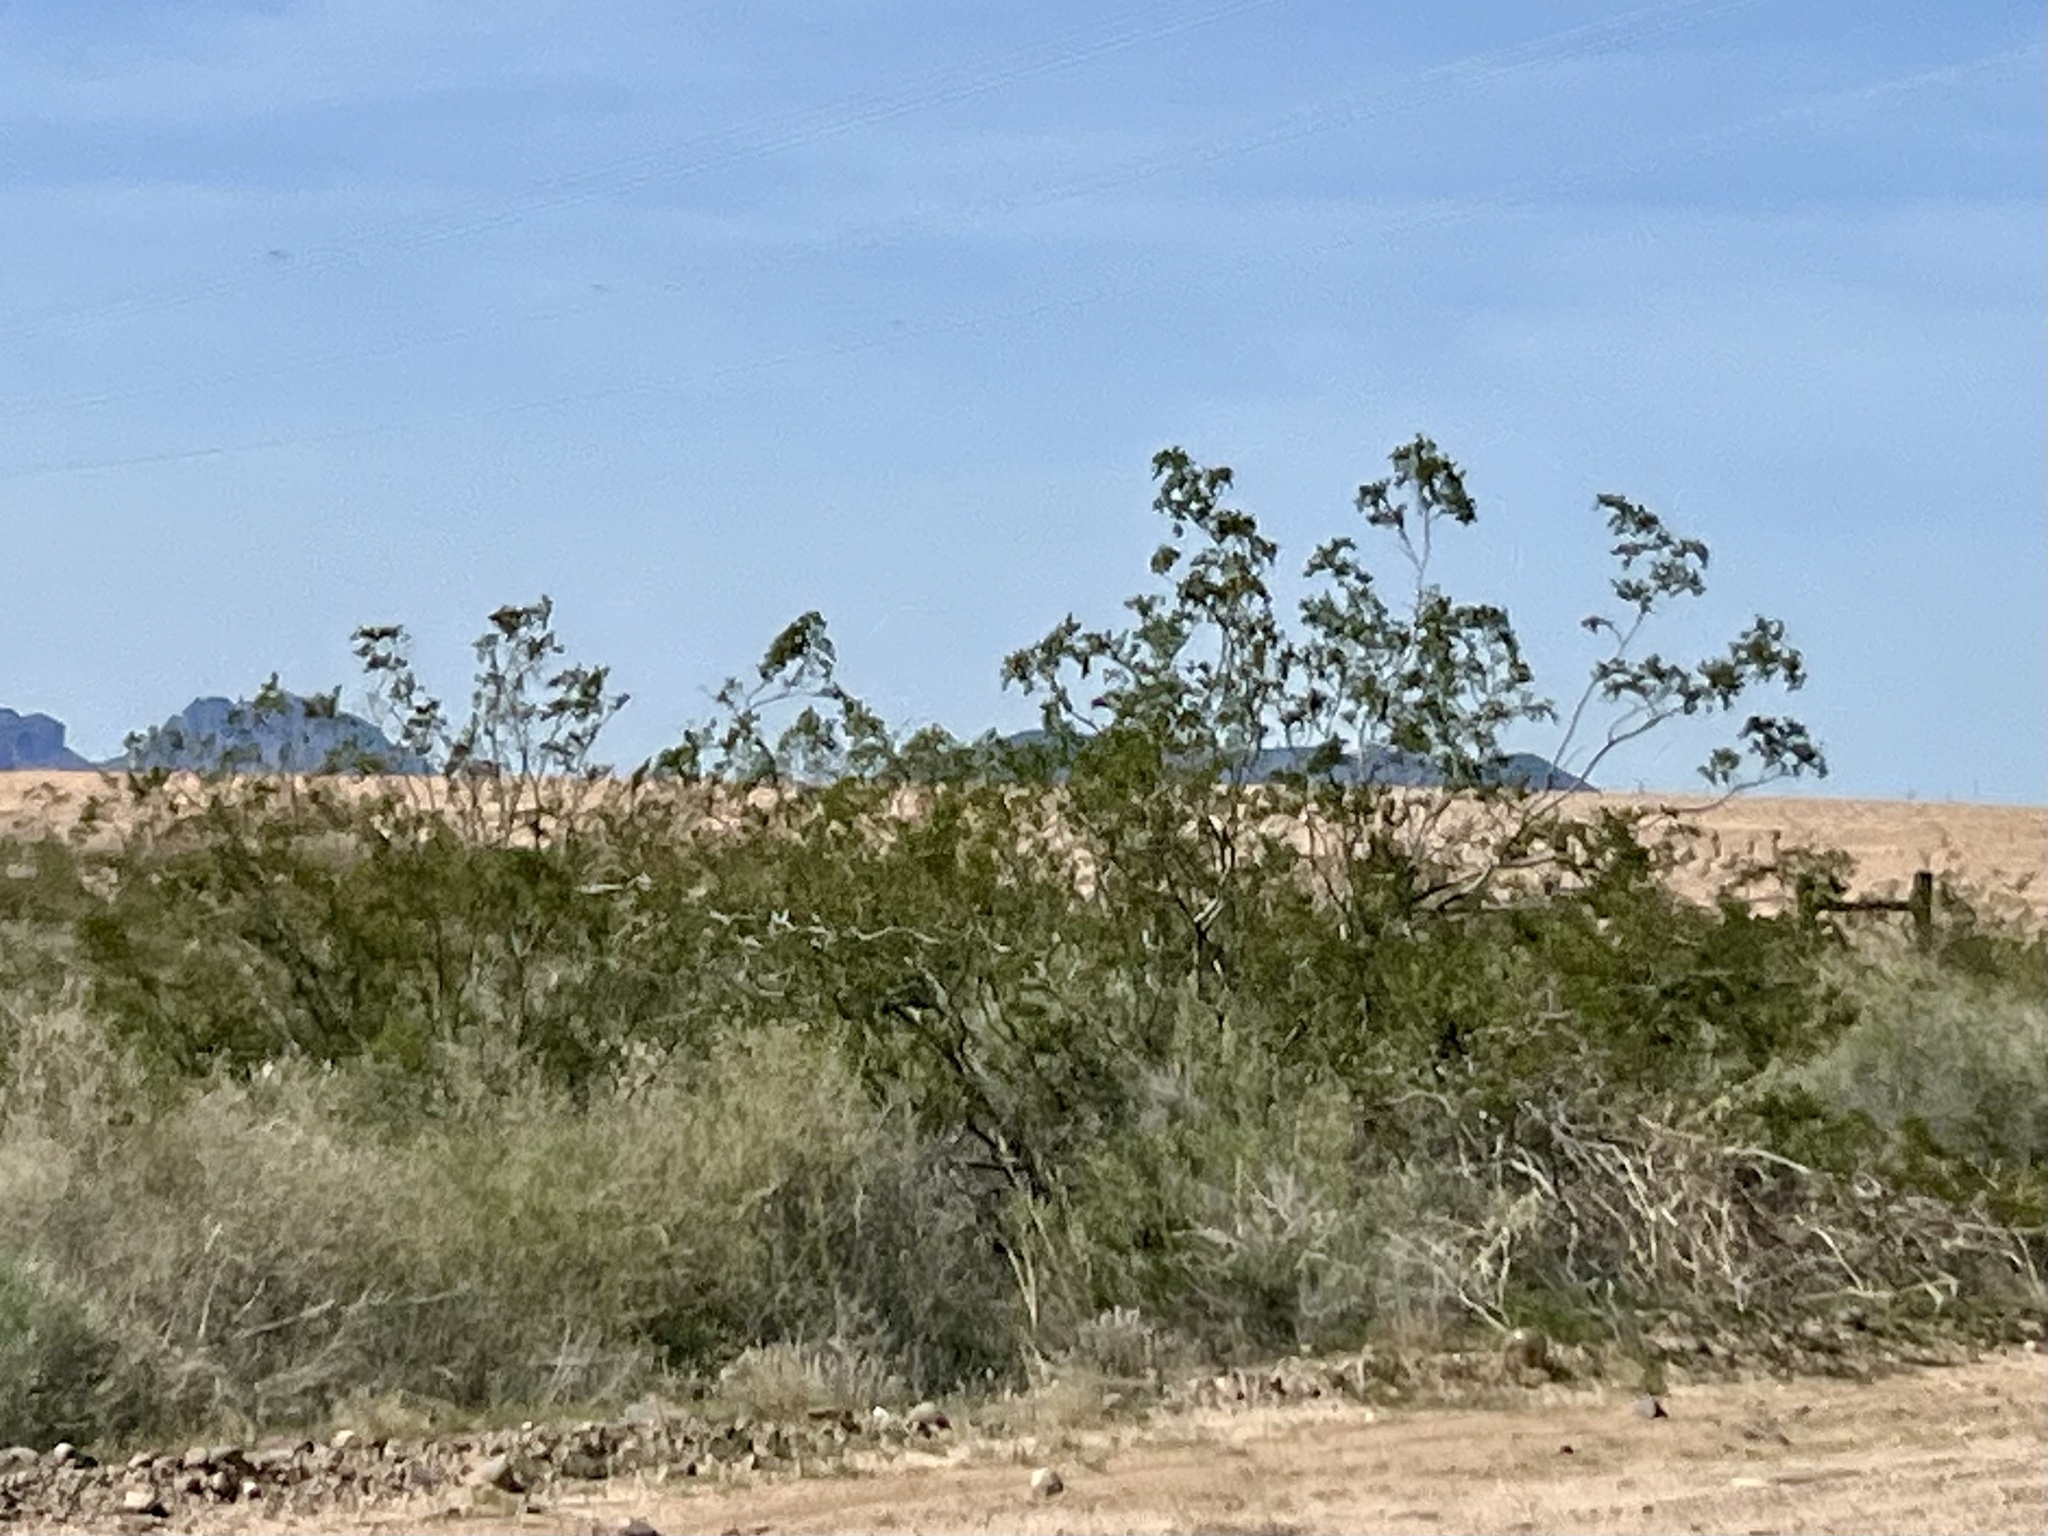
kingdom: Plantae
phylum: Tracheophyta
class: Magnoliopsida
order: Zygophyllales
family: Zygophyllaceae
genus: Larrea
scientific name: Larrea tridentata
